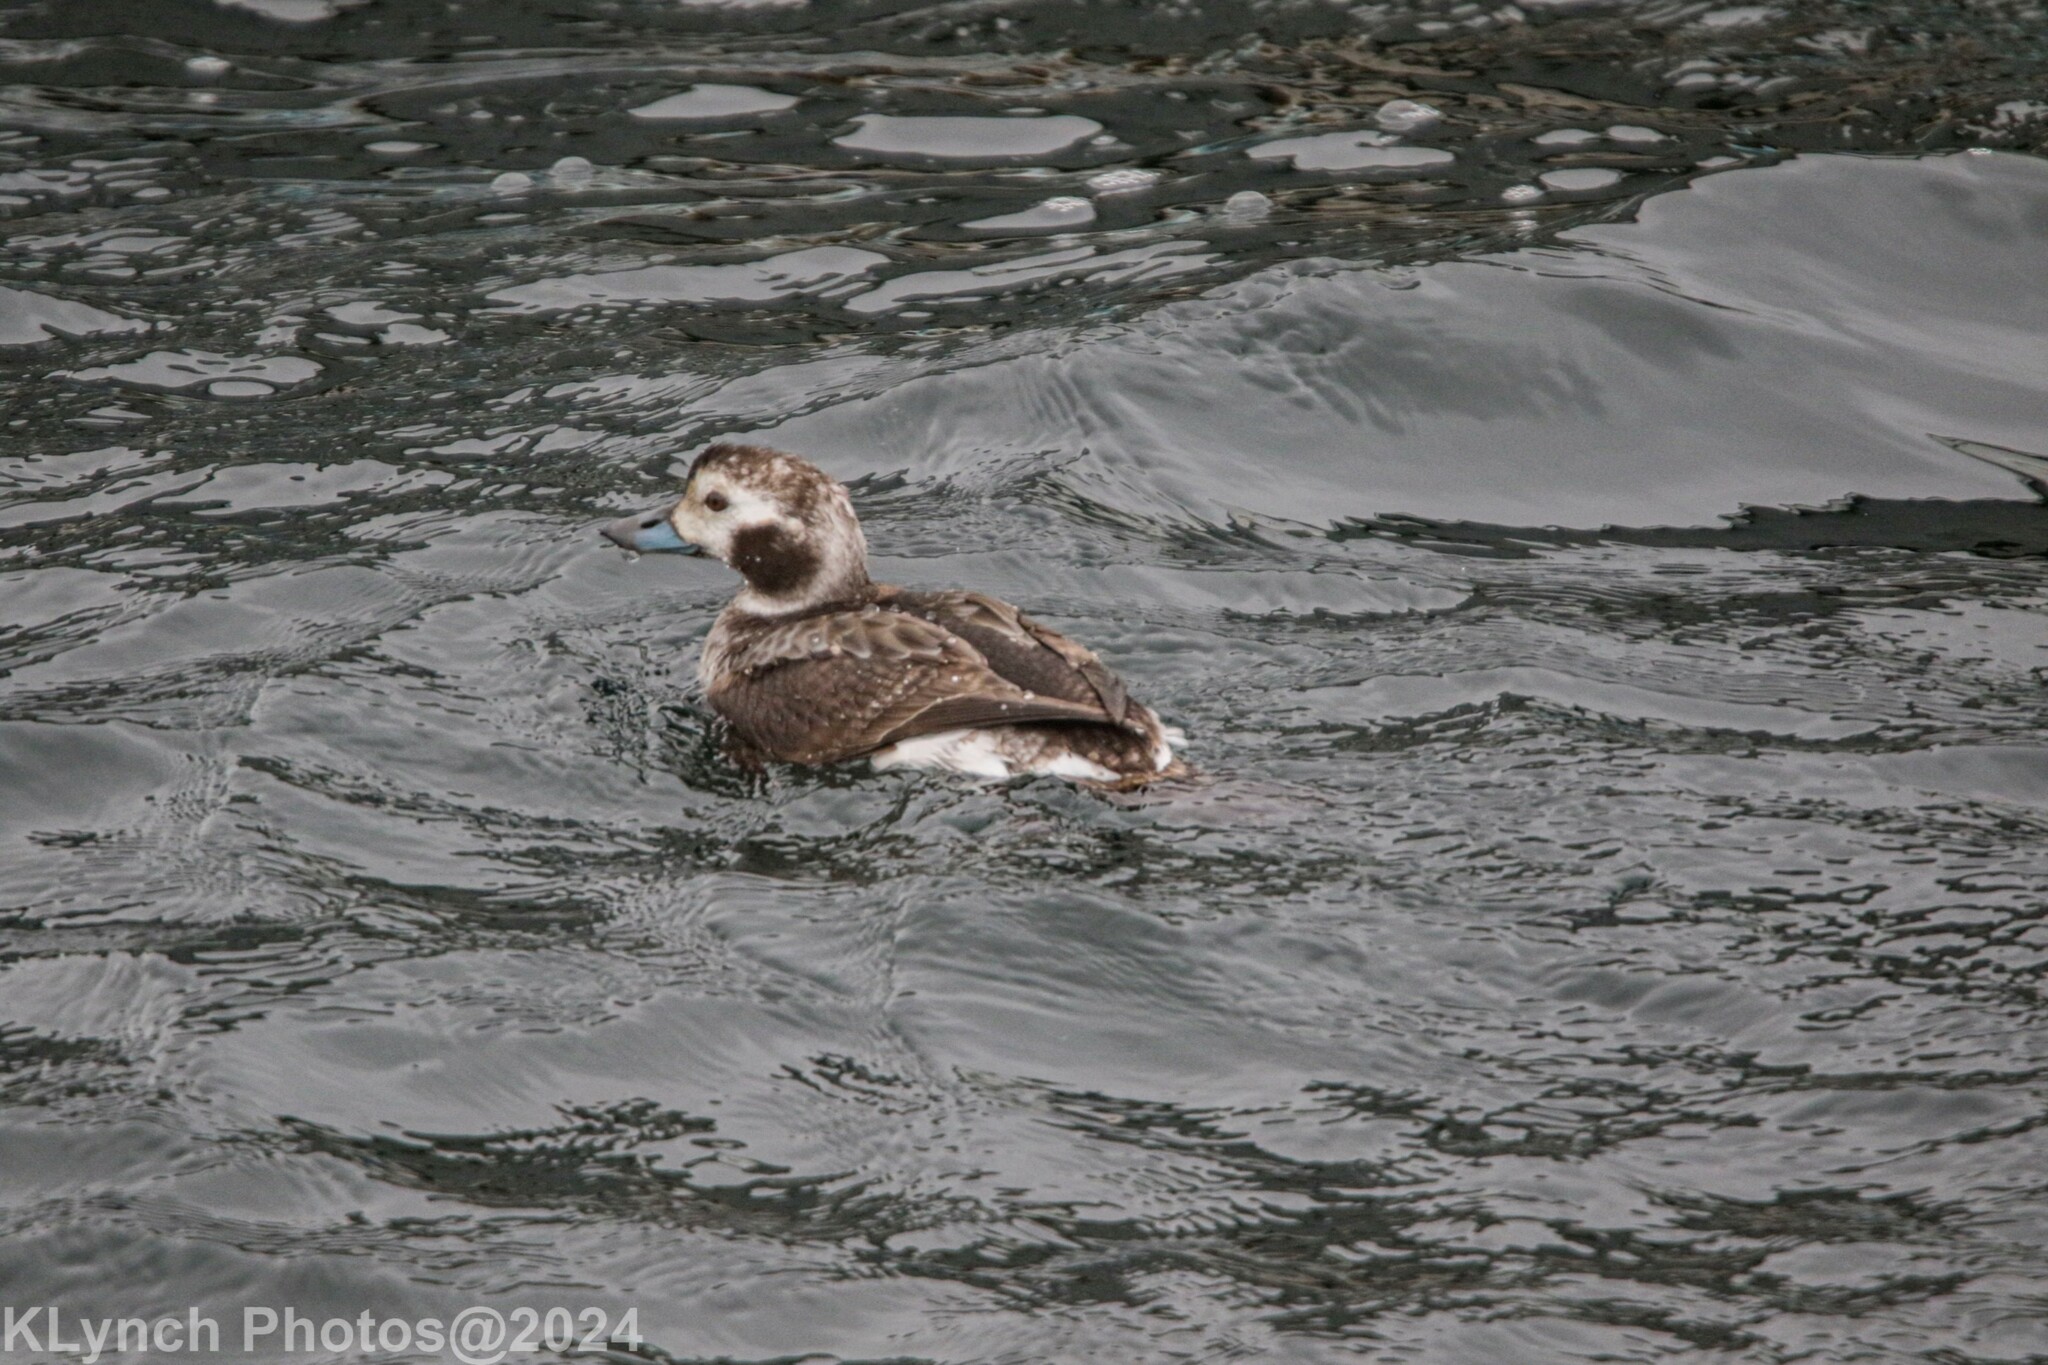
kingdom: Animalia
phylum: Chordata
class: Aves
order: Anseriformes
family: Anatidae
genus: Clangula
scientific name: Clangula hyemalis
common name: Long-tailed duck
